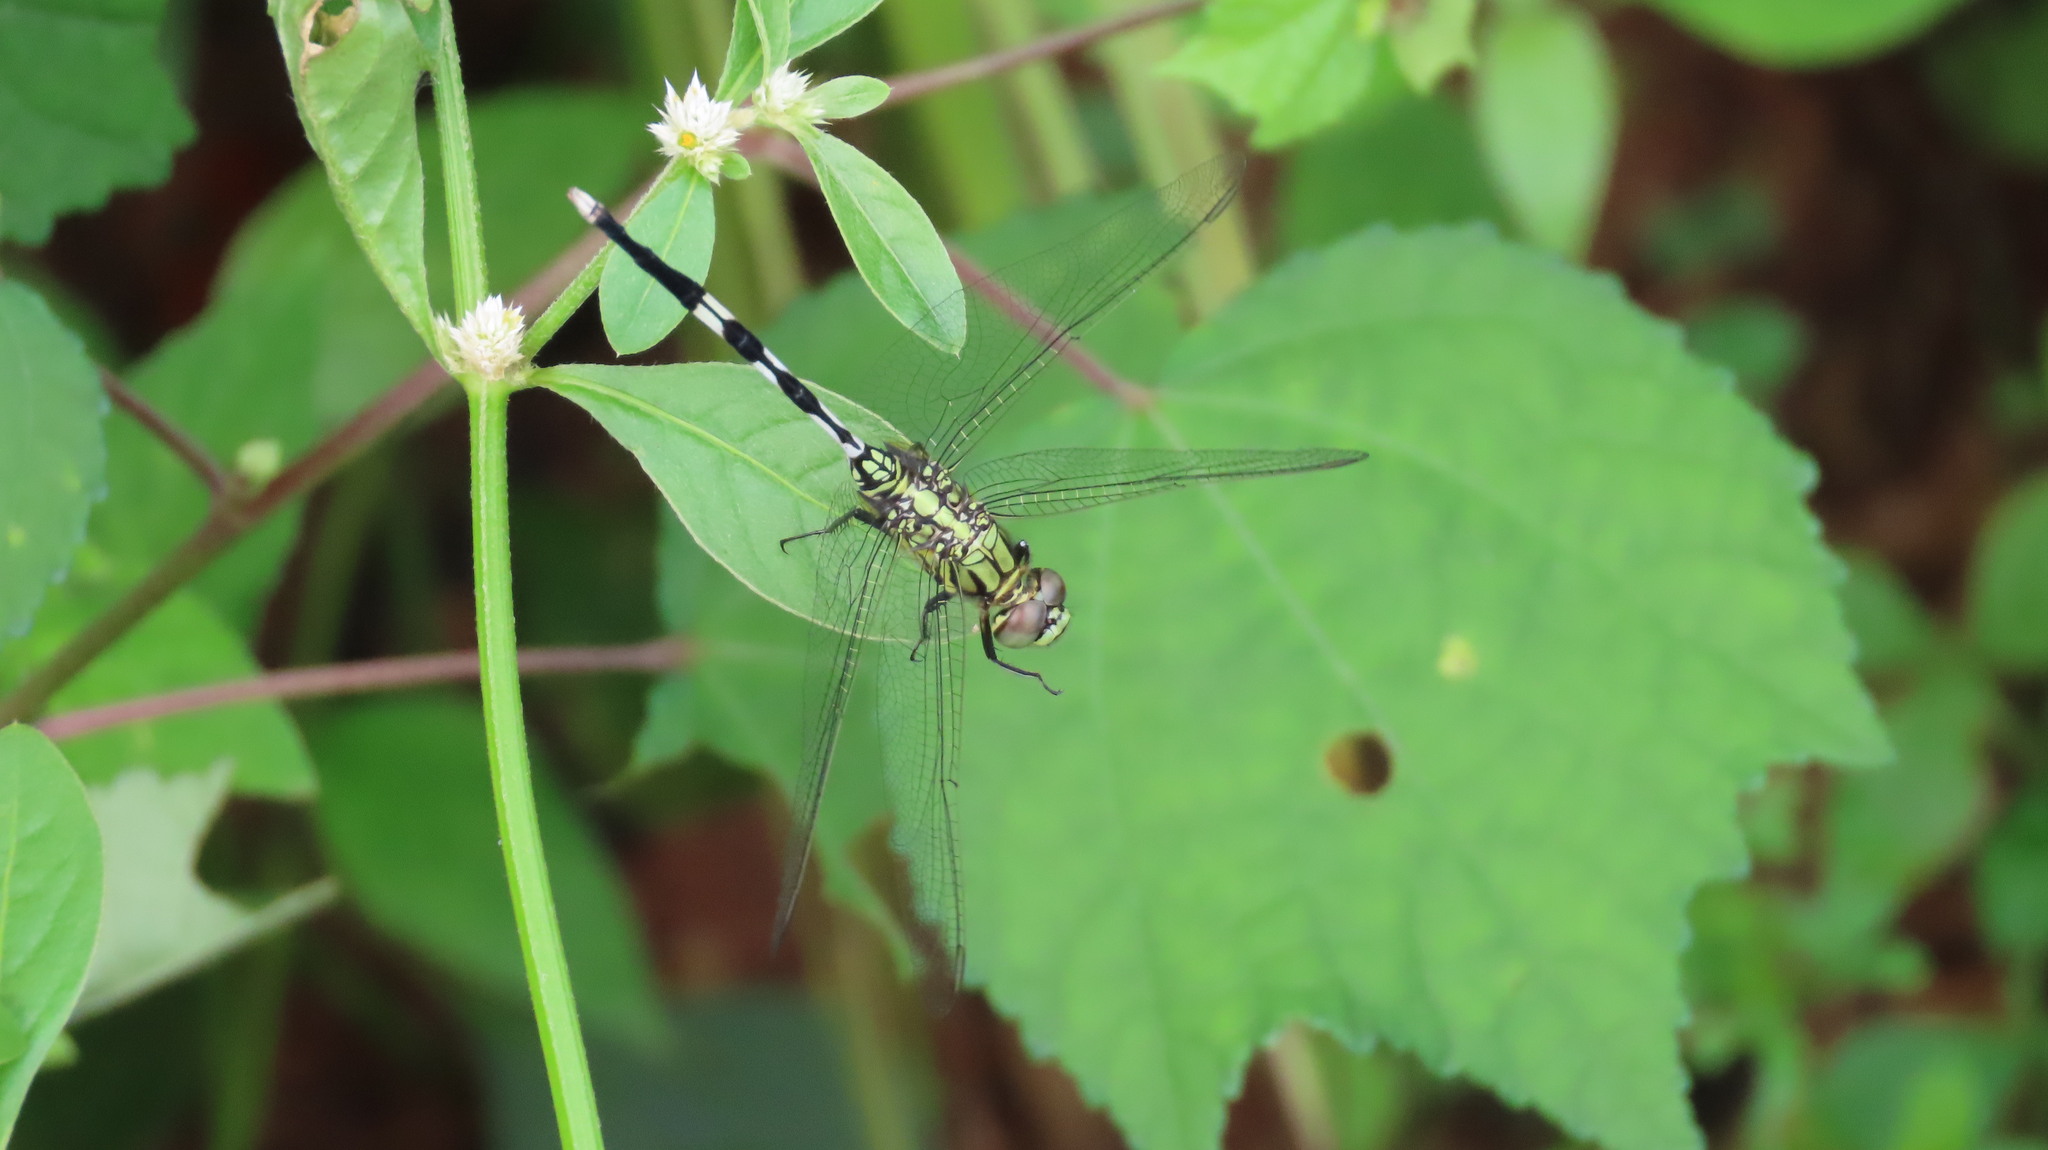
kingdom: Animalia
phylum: Arthropoda
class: Insecta
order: Odonata
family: Libellulidae
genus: Orthetrum
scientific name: Orthetrum sabina
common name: Slender skimmer
